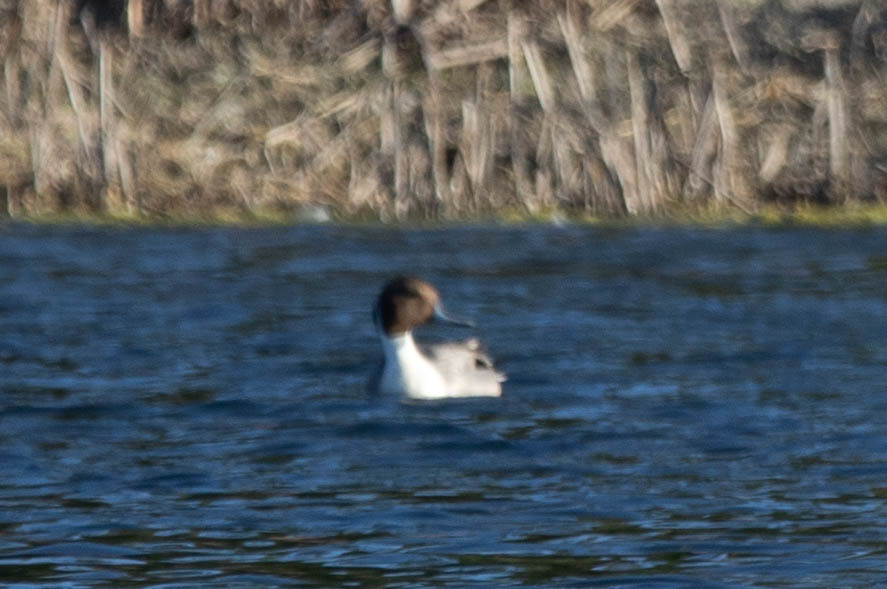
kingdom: Animalia
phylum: Chordata
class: Aves
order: Anseriformes
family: Anatidae
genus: Anas
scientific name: Anas acuta
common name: Northern pintail
